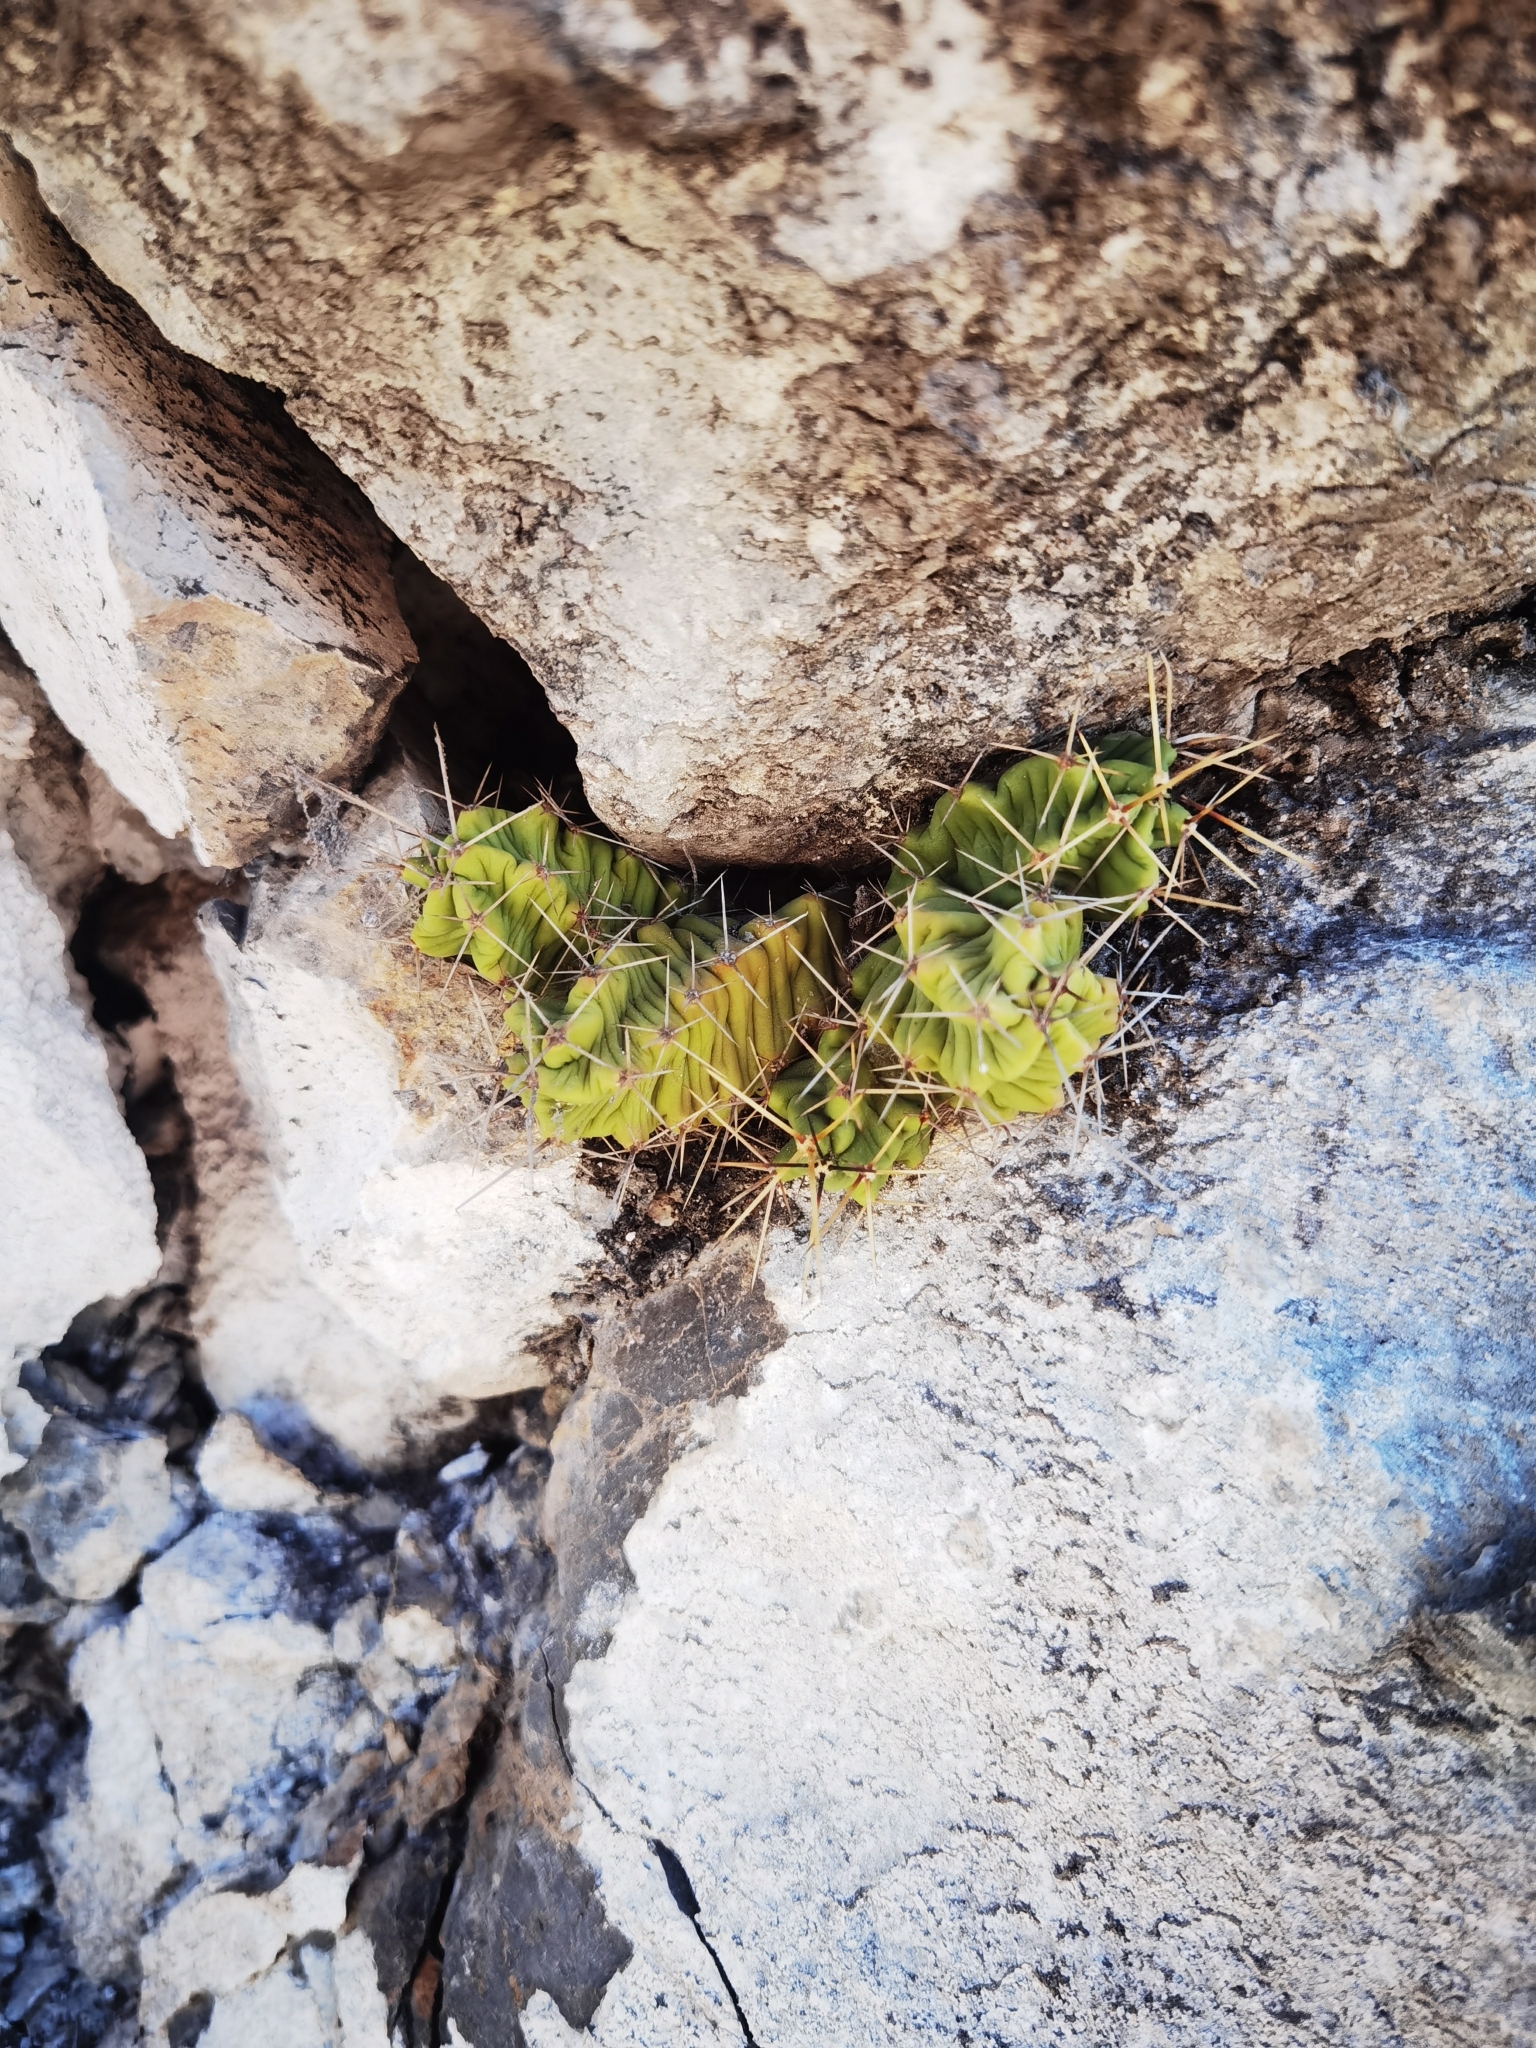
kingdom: Plantae
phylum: Tracheophyta
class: Magnoliopsida
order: Caryophyllales
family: Cactaceae
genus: Echinocereus
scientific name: Echinocereus pentalophus
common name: Ladyfinger cactus
